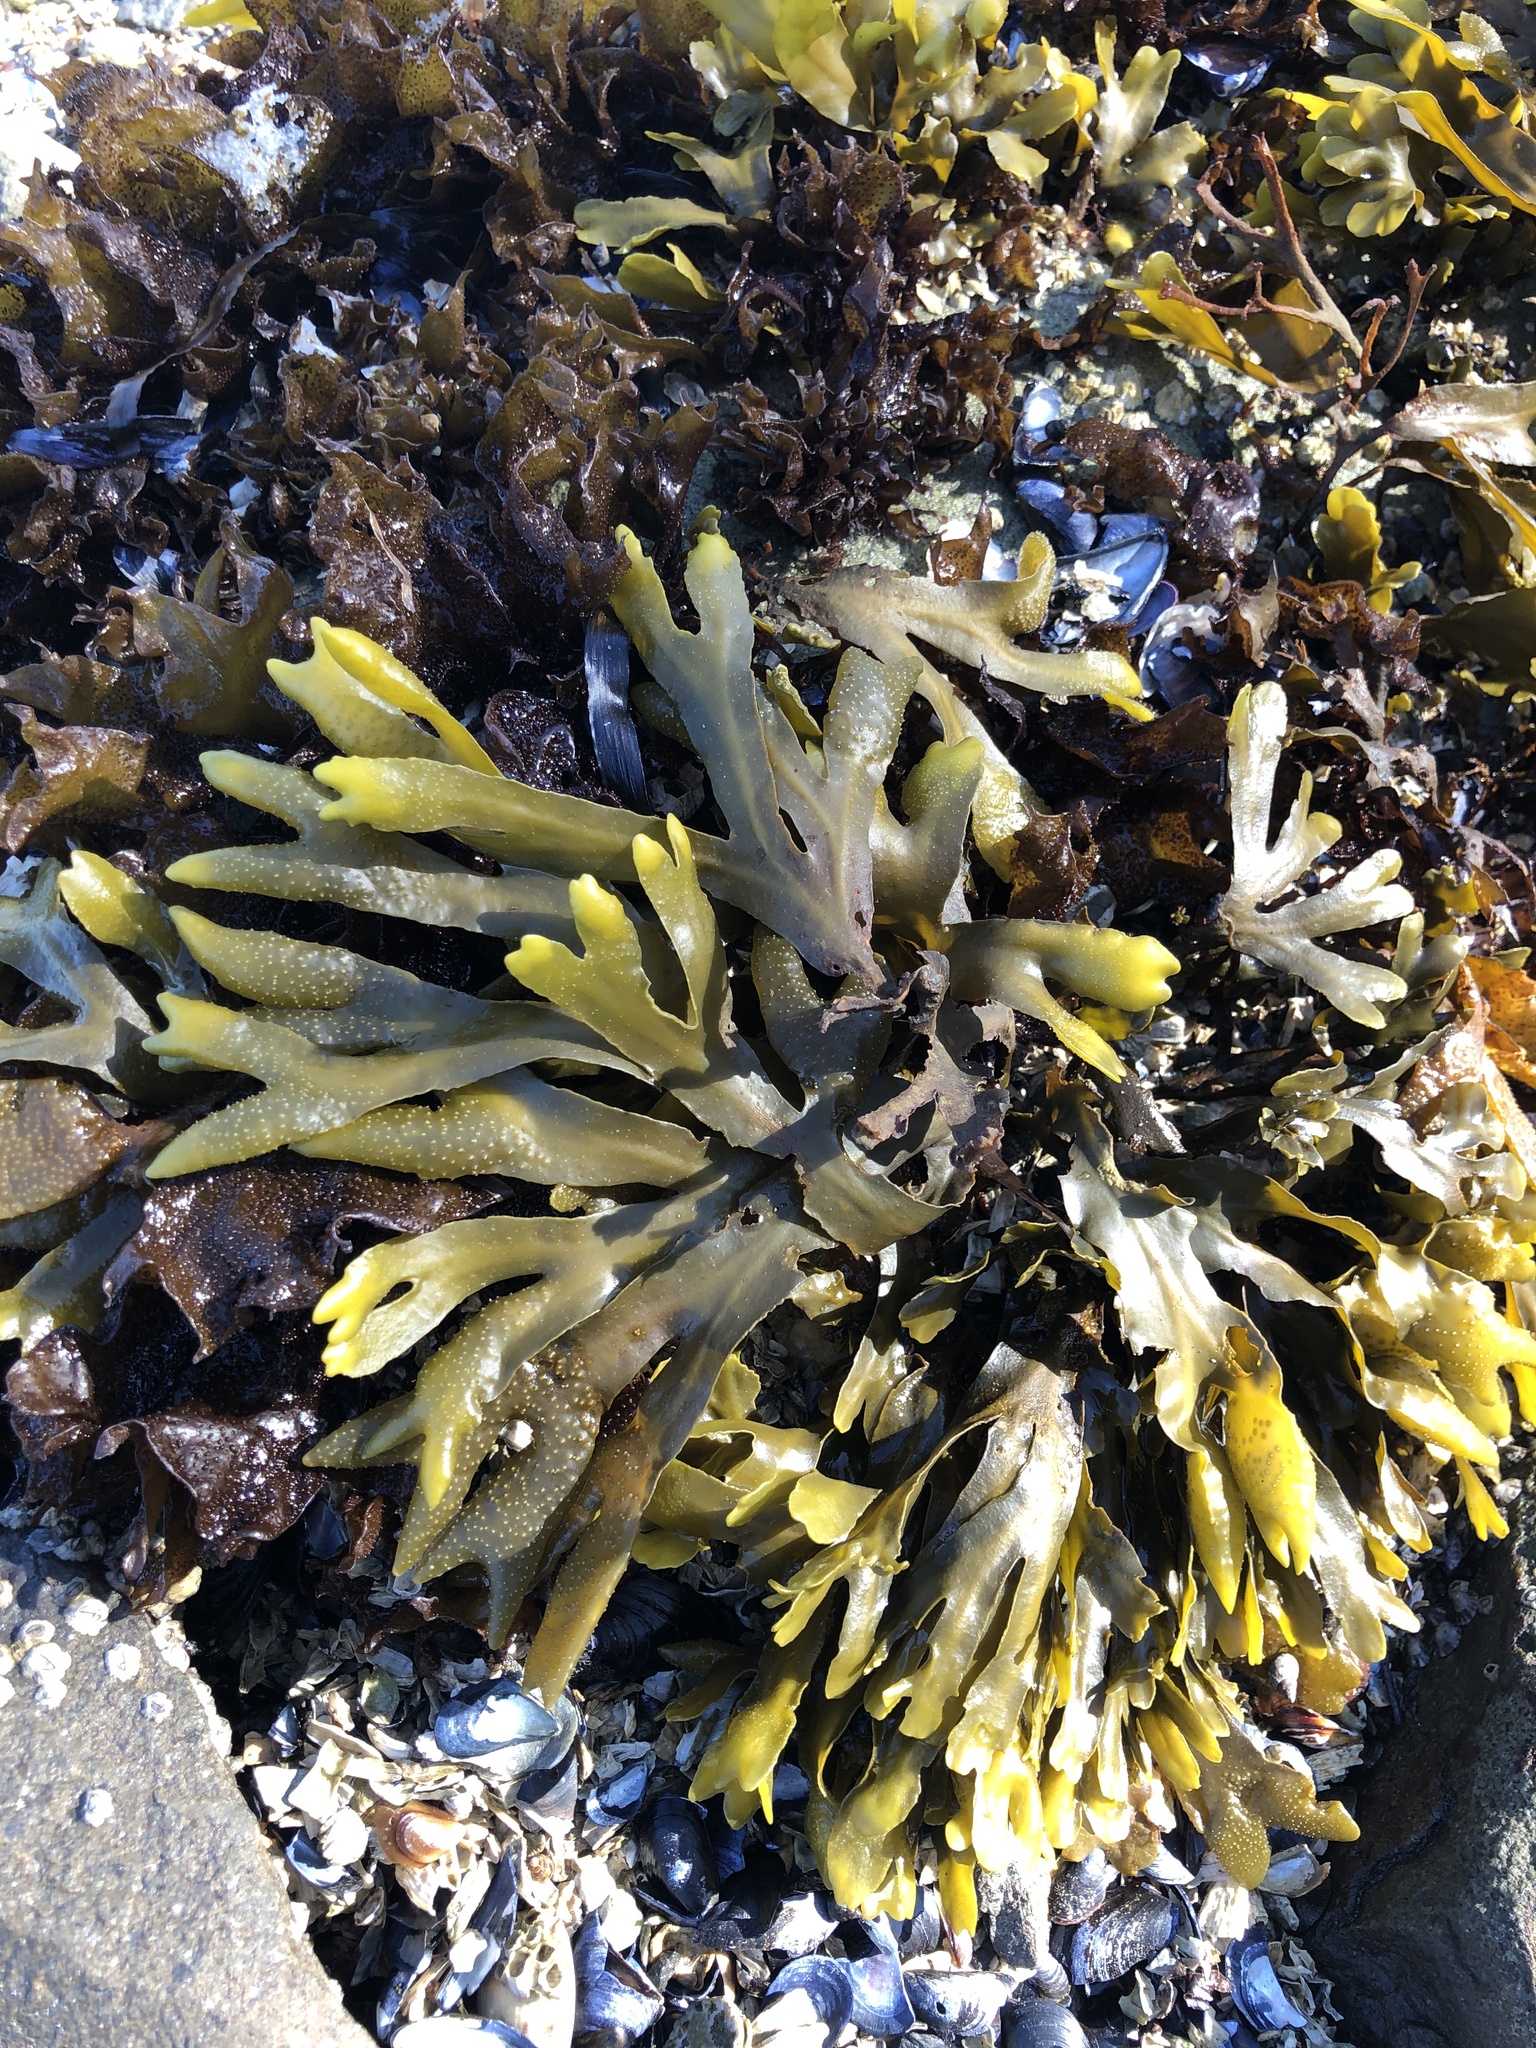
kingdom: Chromista
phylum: Ochrophyta
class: Phaeophyceae
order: Fucales
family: Fucaceae
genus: Fucus
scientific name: Fucus distichus
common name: Rockweed
